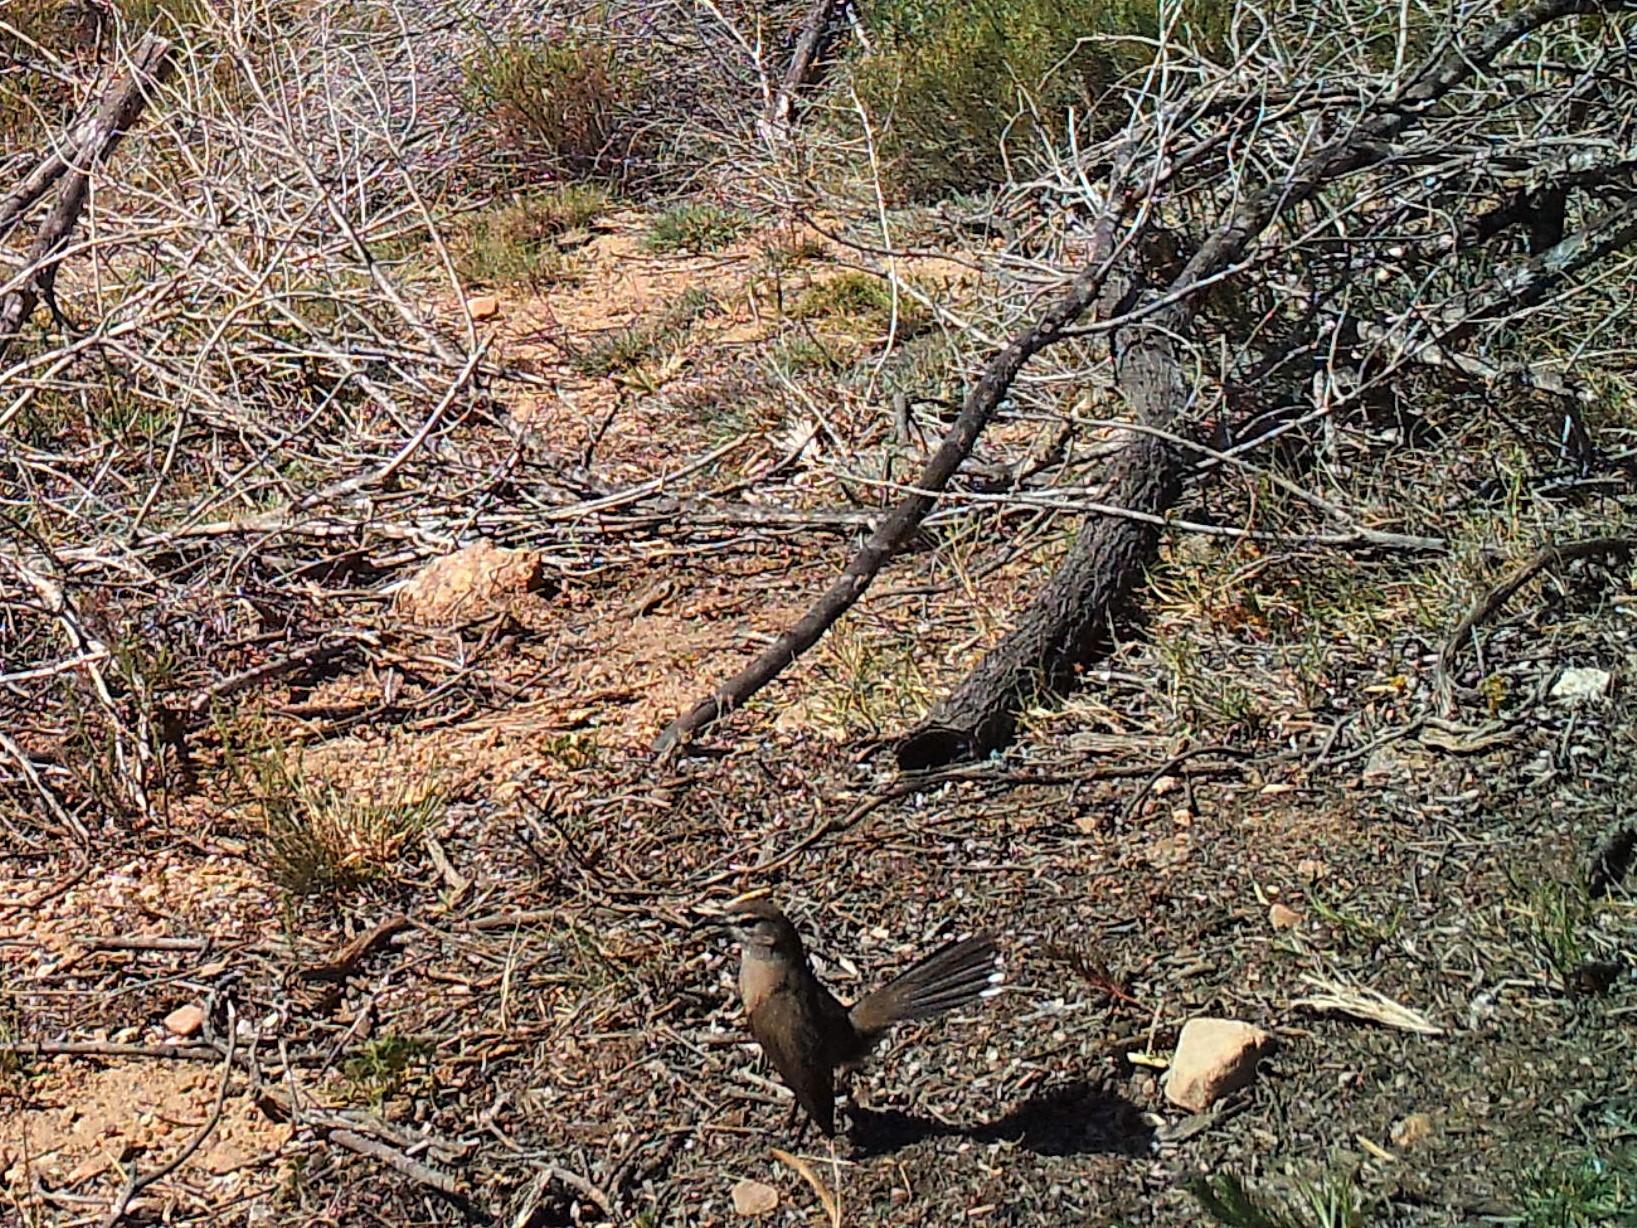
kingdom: Animalia
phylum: Chordata
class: Aves
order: Passeriformes
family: Muscicapidae
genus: Erythropygia
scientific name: Erythropygia coryphoeus
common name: Karoo scrub robin
